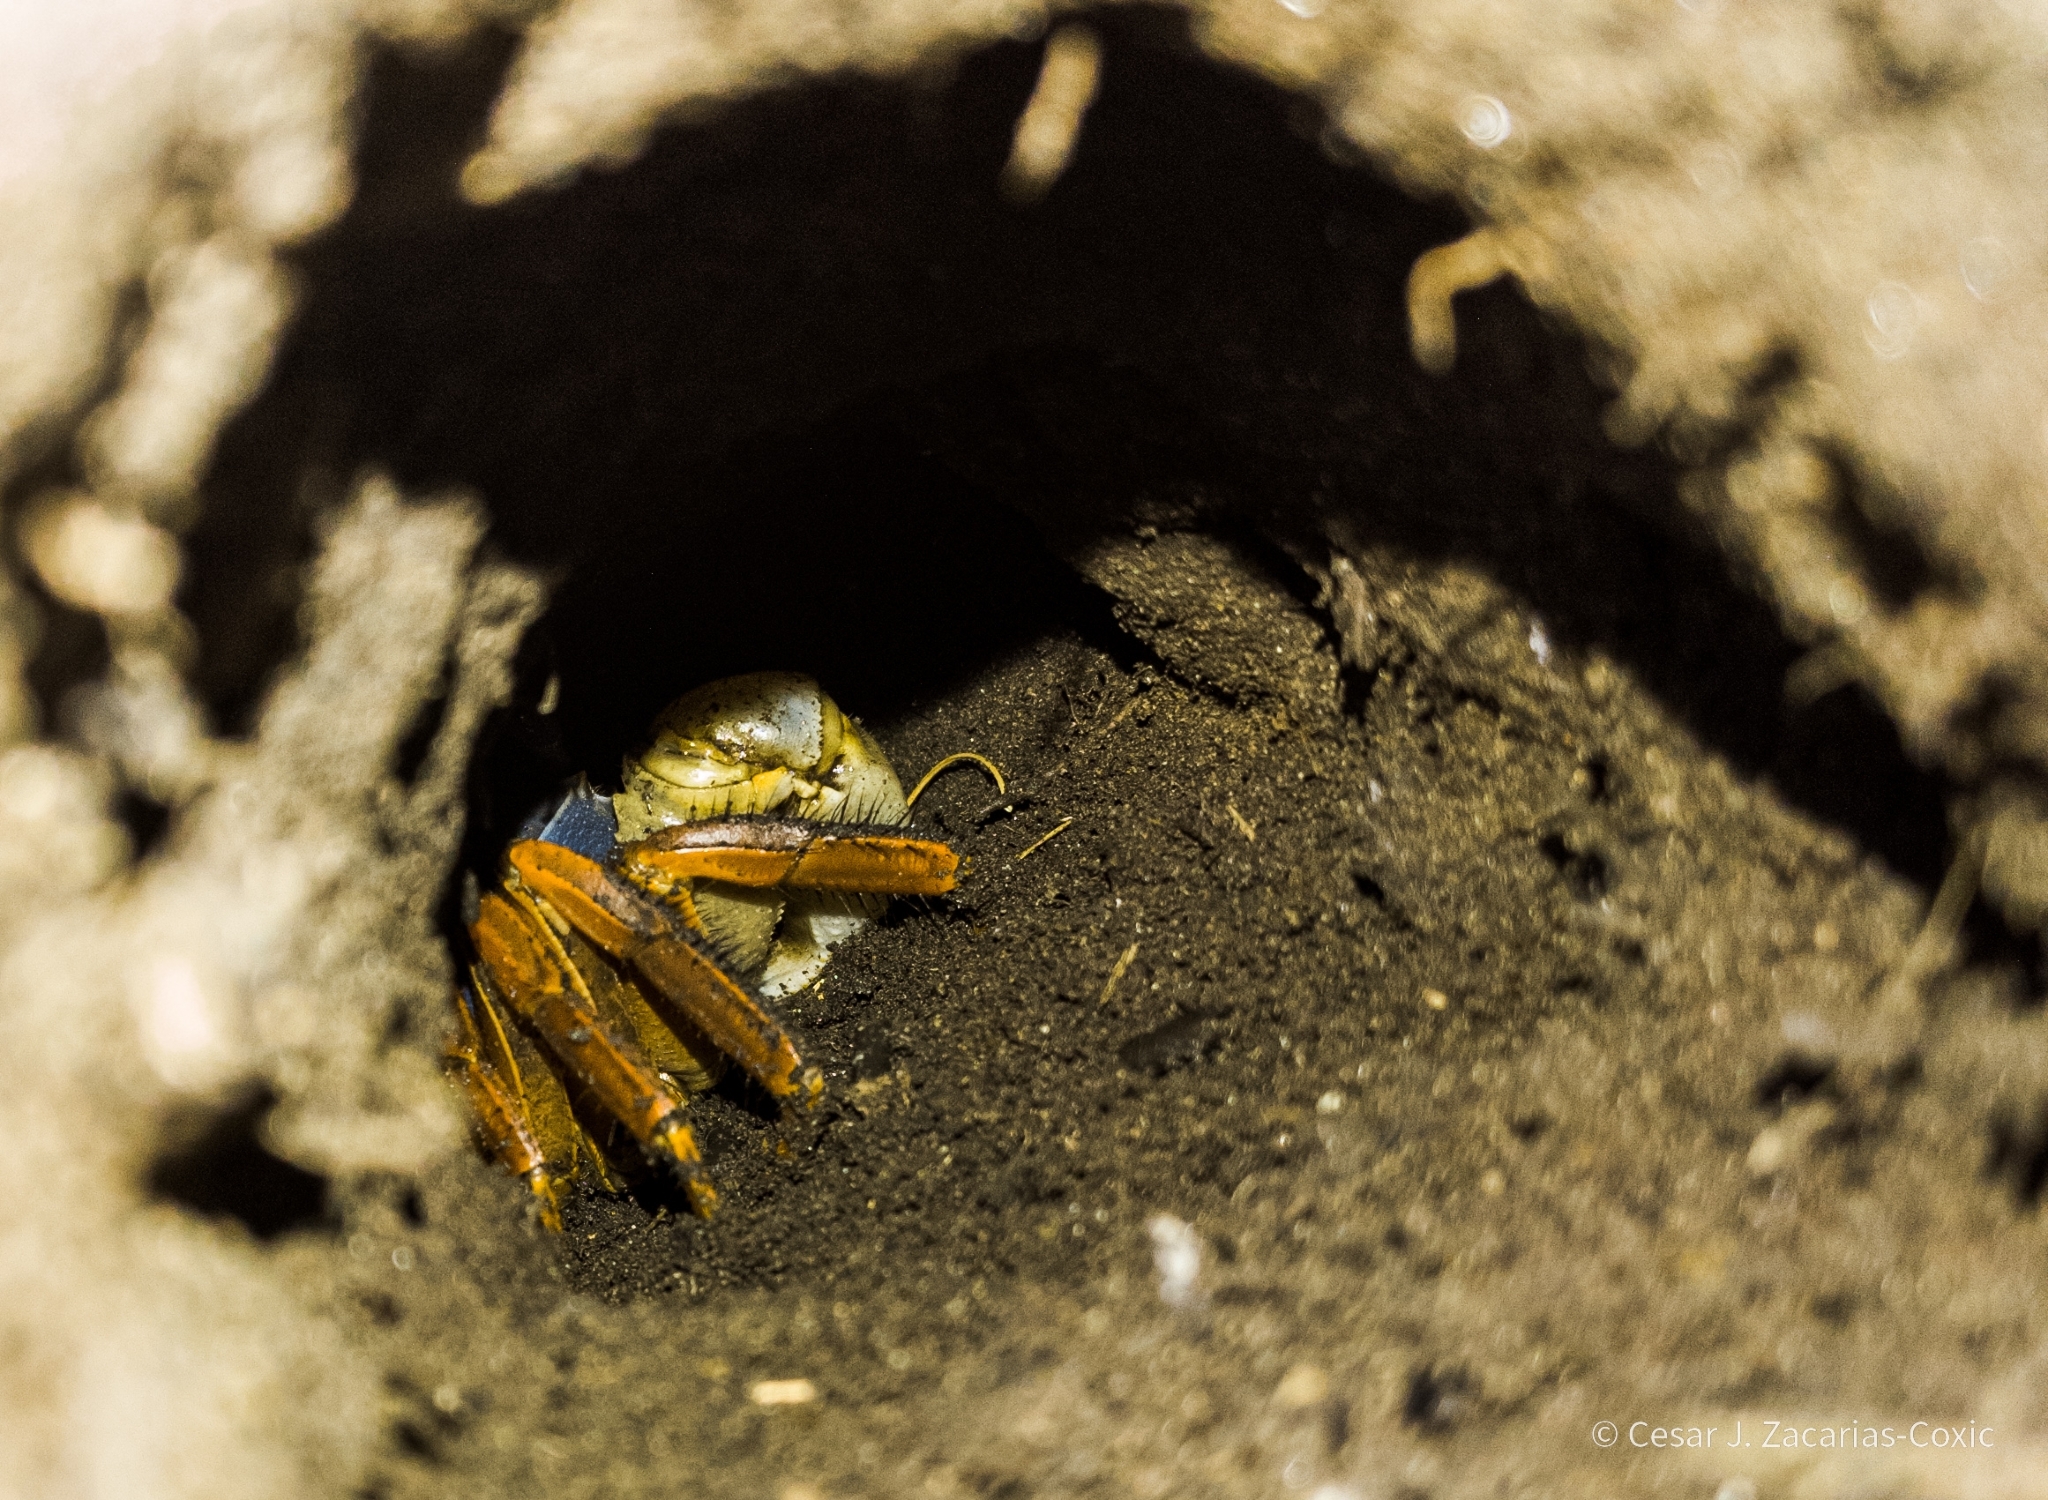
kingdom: Animalia
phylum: Arthropoda
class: Malacostraca
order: Decapoda
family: Gecarcinidae
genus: Cardisoma
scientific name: Cardisoma crassum
